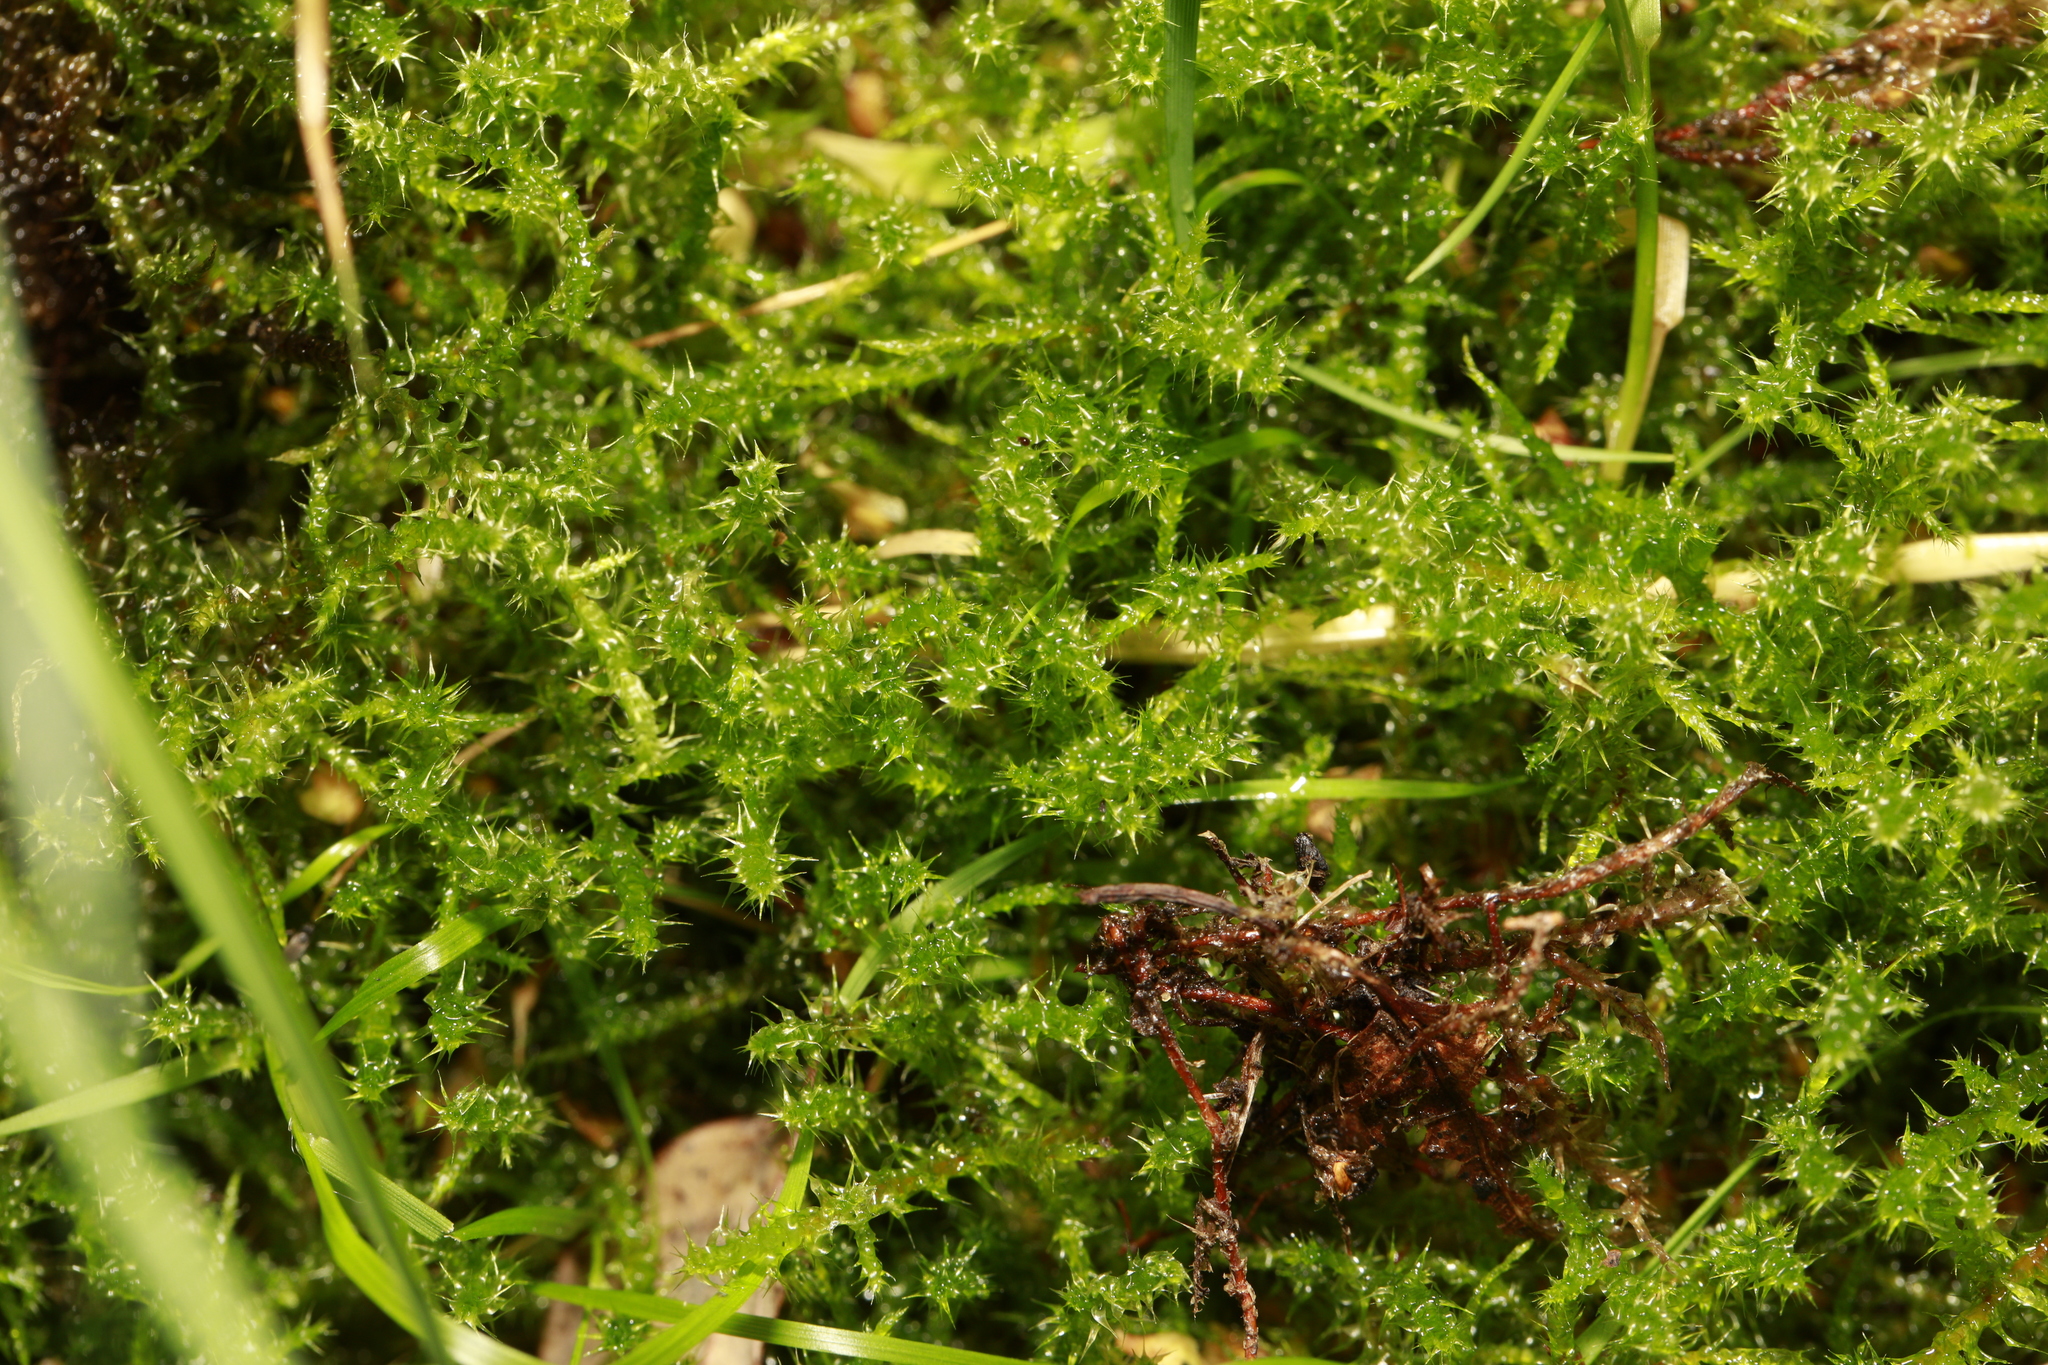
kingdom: Plantae
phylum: Bryophyta
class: Bryopsida
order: Hypnales
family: Hylocomiaceae
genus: Rhytidiadelphus
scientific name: Rhytidiadelphus squarrosus
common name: Springy turf-moss
